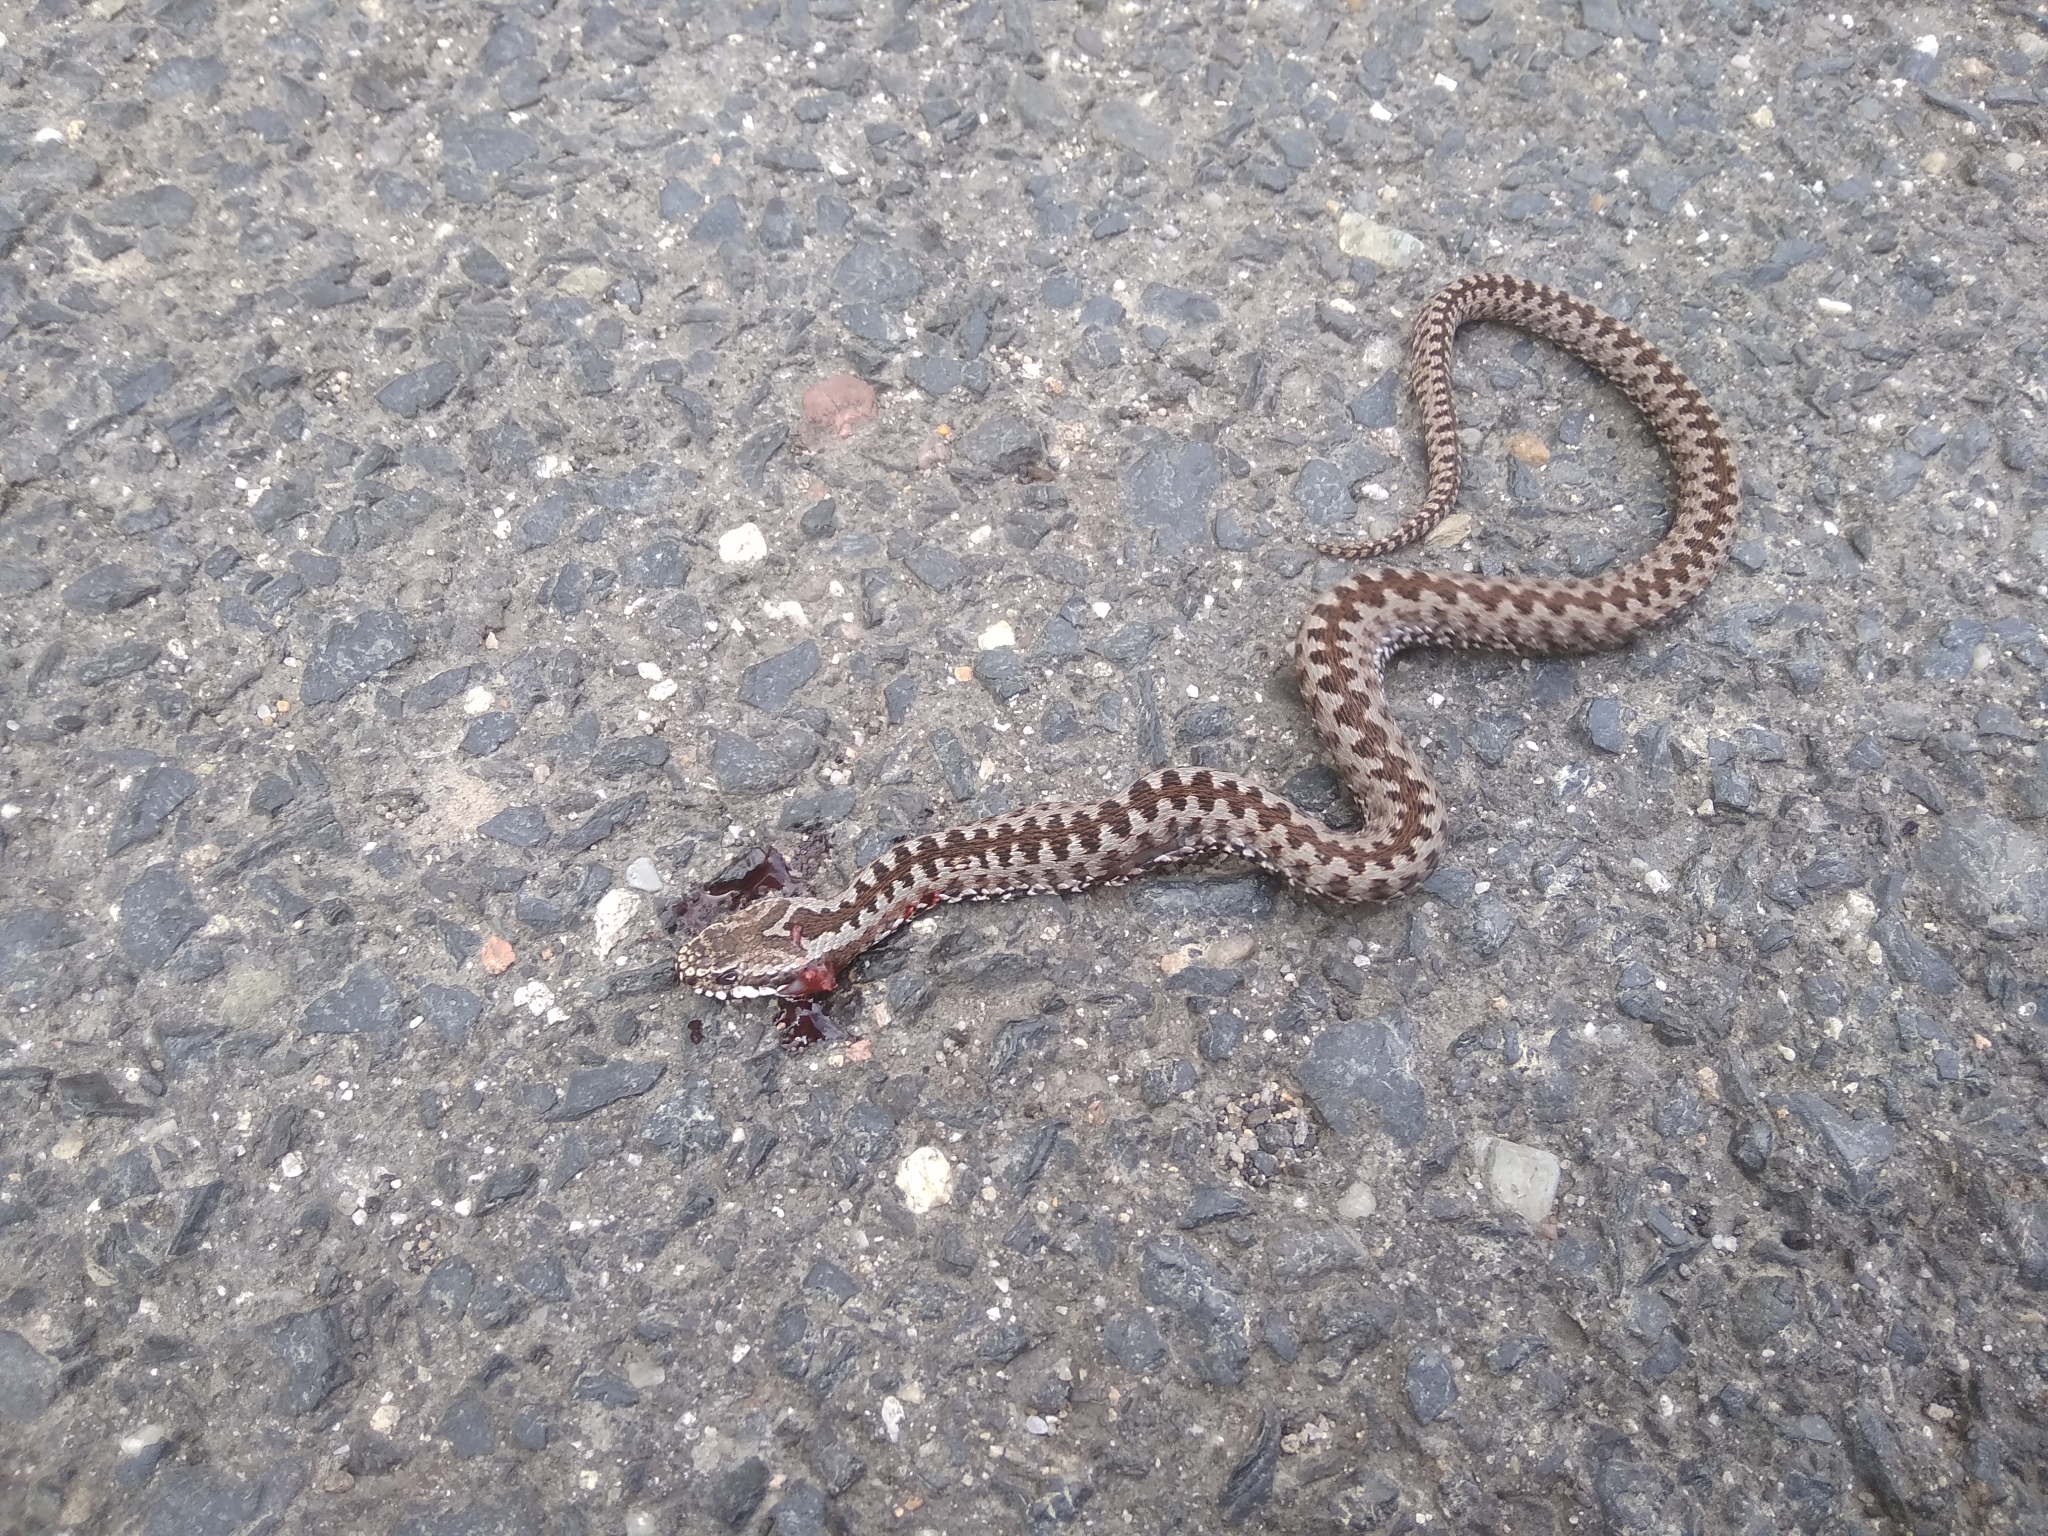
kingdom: Animalia
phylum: Chordata
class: Squamata
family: Viperidae
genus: Vipera
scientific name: Vipera berus
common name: Adder
